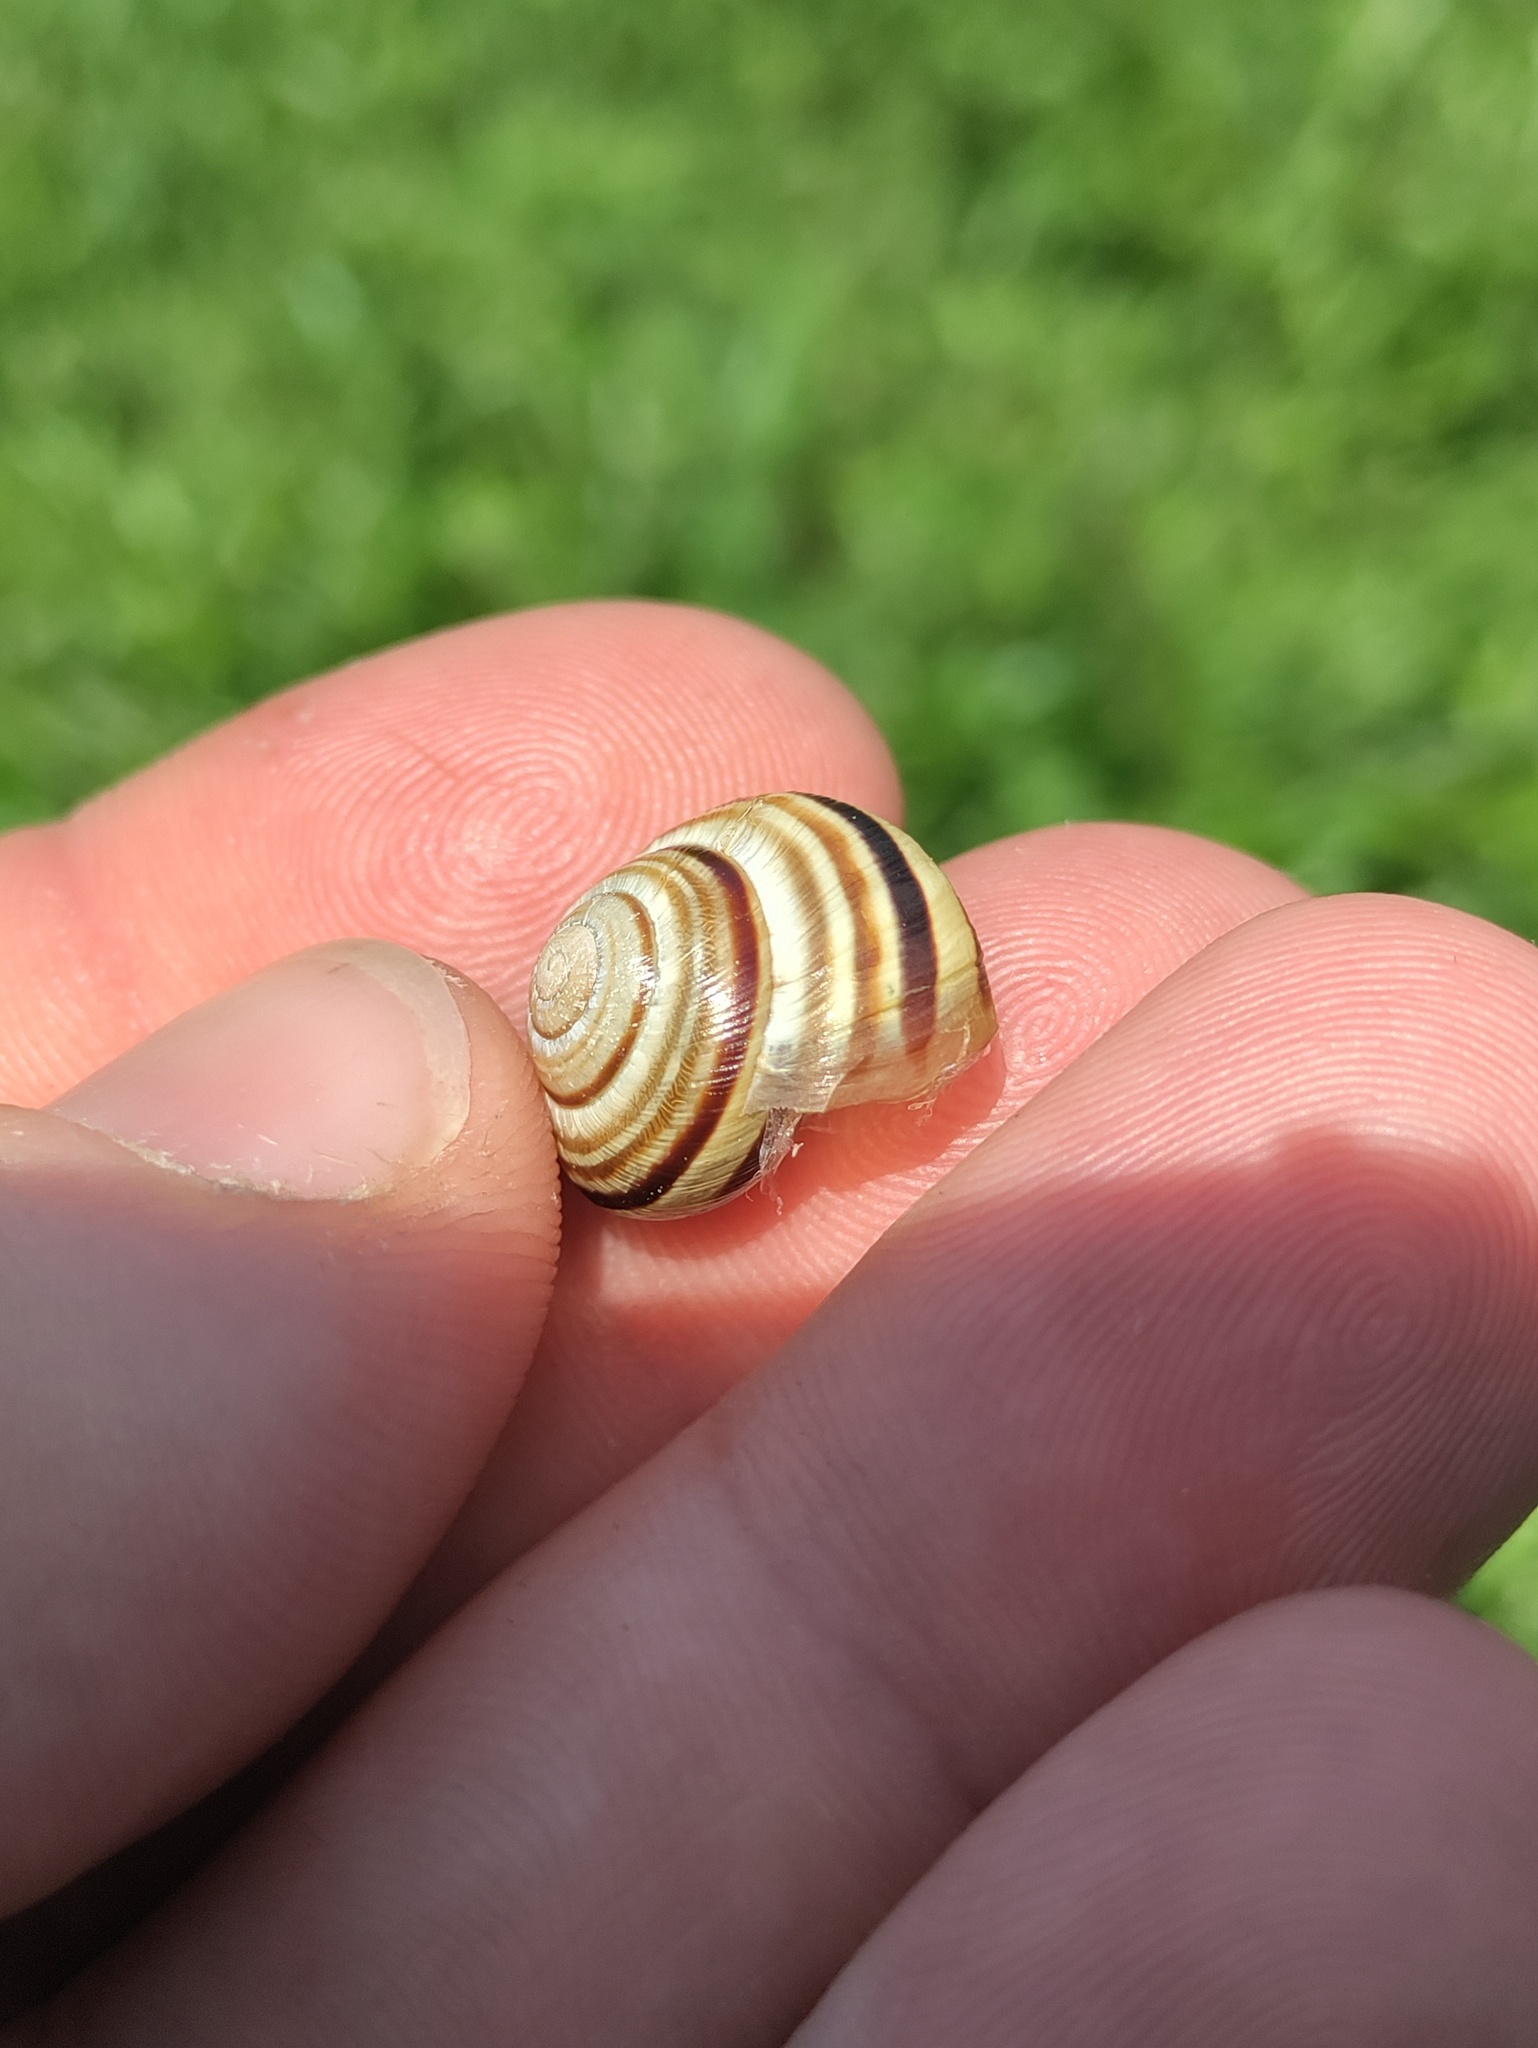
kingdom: Animalia
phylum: Mollusca
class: Gastropoda
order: Stylommatophora
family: Helicidae
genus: Caucasotachea
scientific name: Caucasotachea vindobonensis
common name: European helicid land snail
